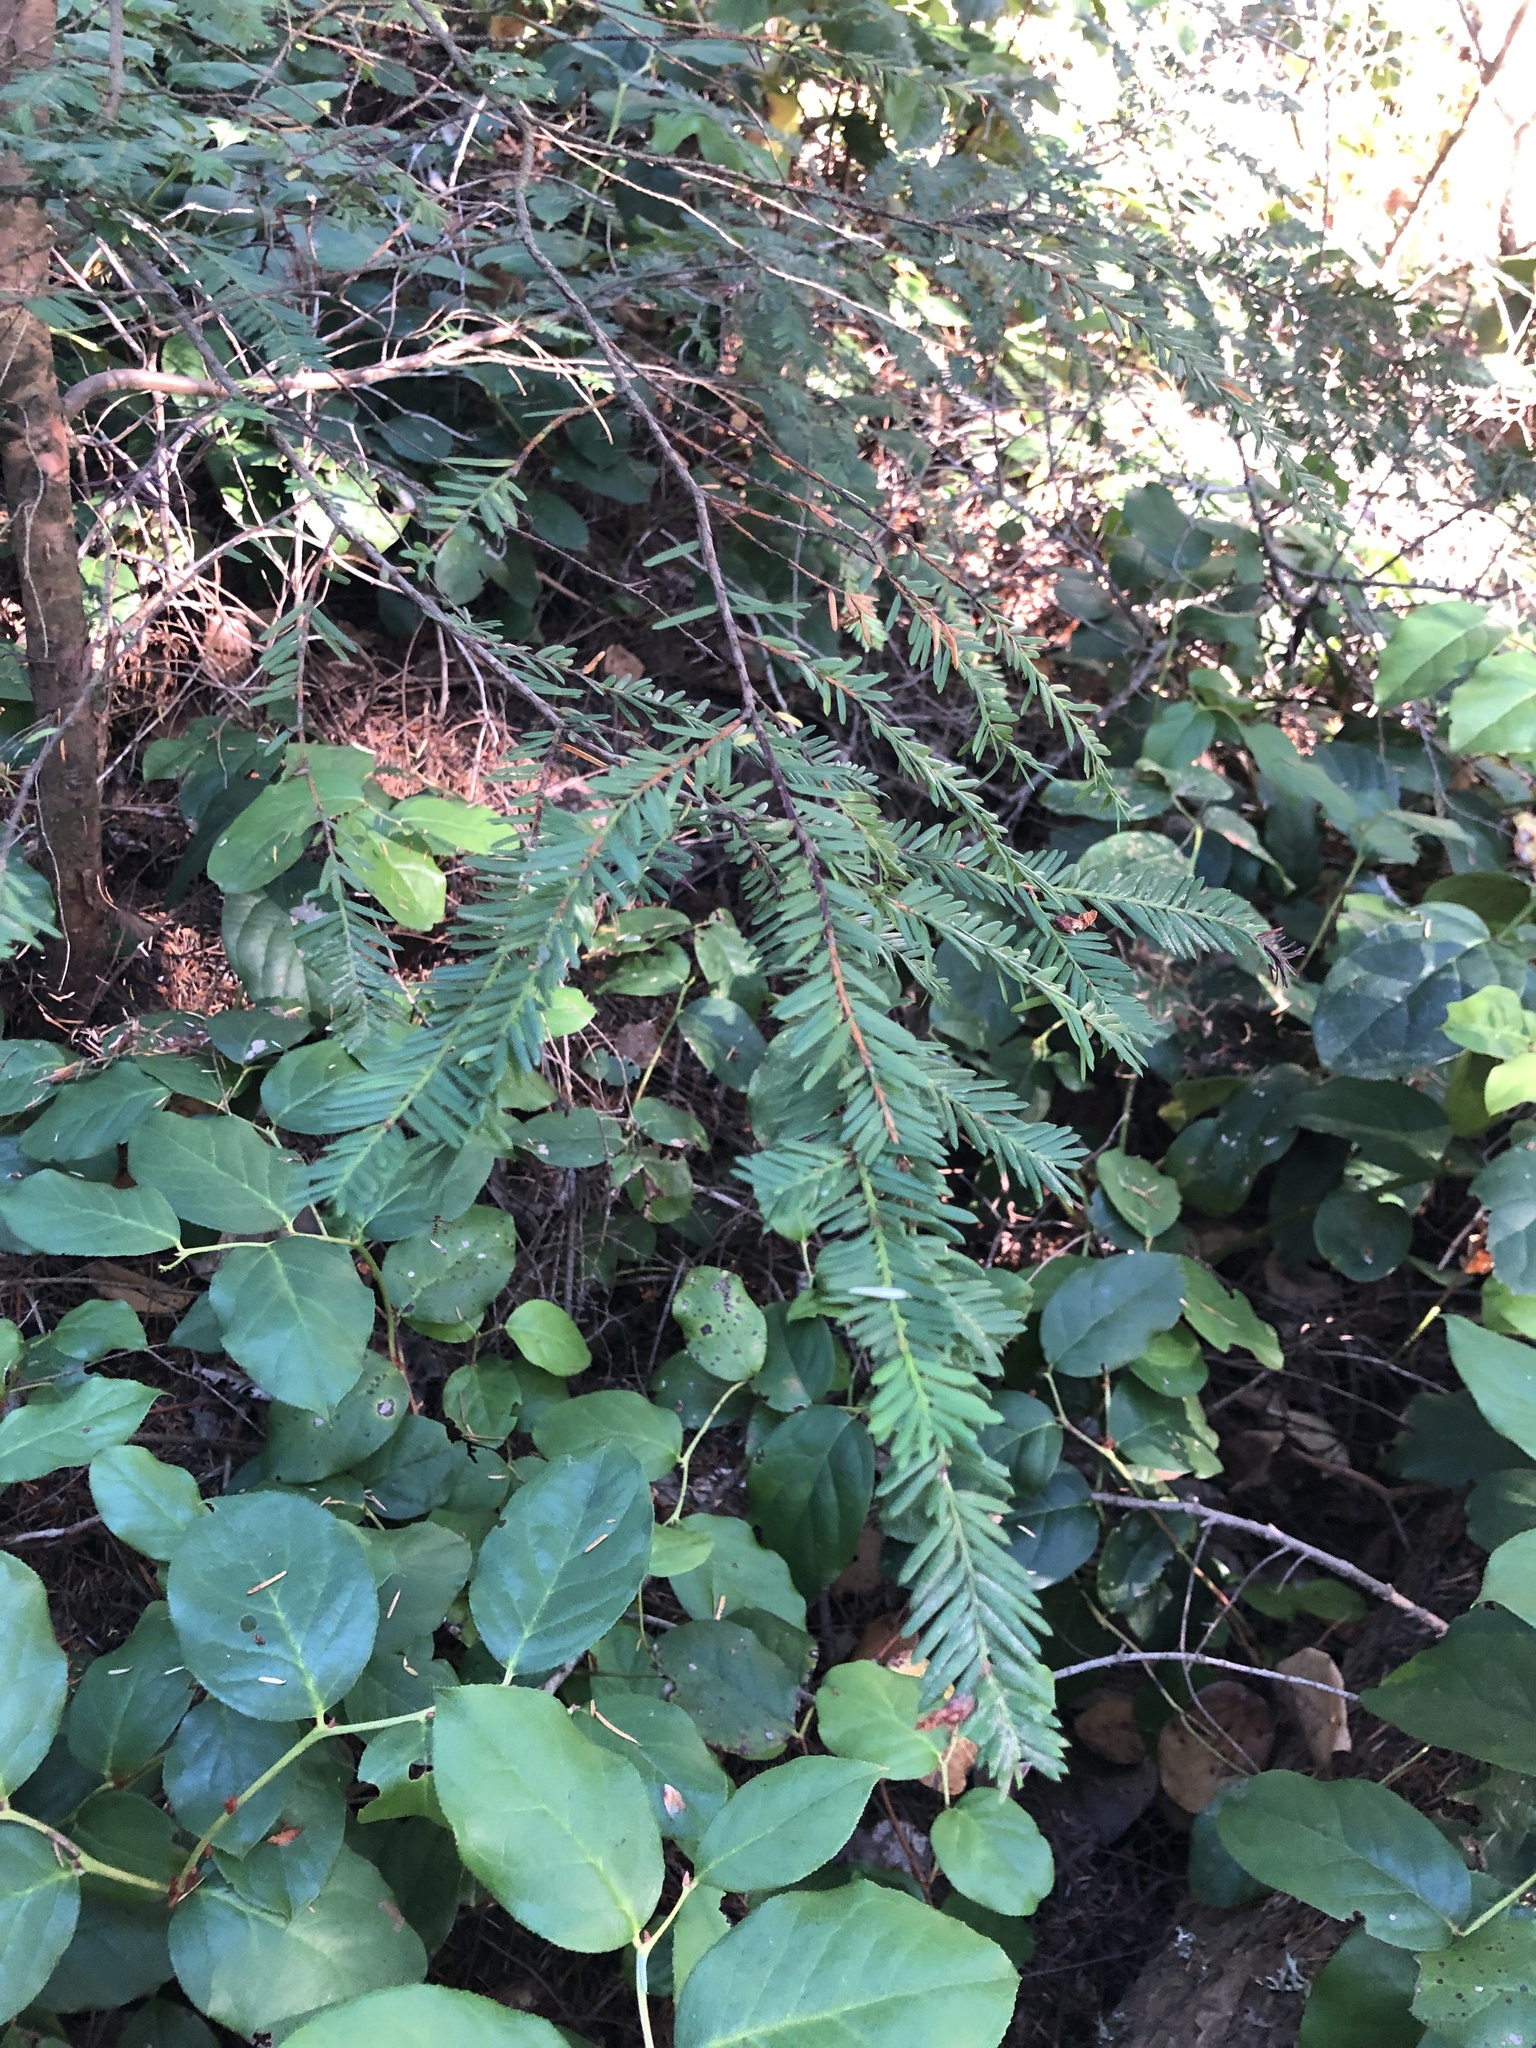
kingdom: Plantae
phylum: Tracheophyta
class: Pinopsida
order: Pinales
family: Taxaceae
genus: Taxus
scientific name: Taxus brevifolia
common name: Pacific yew
